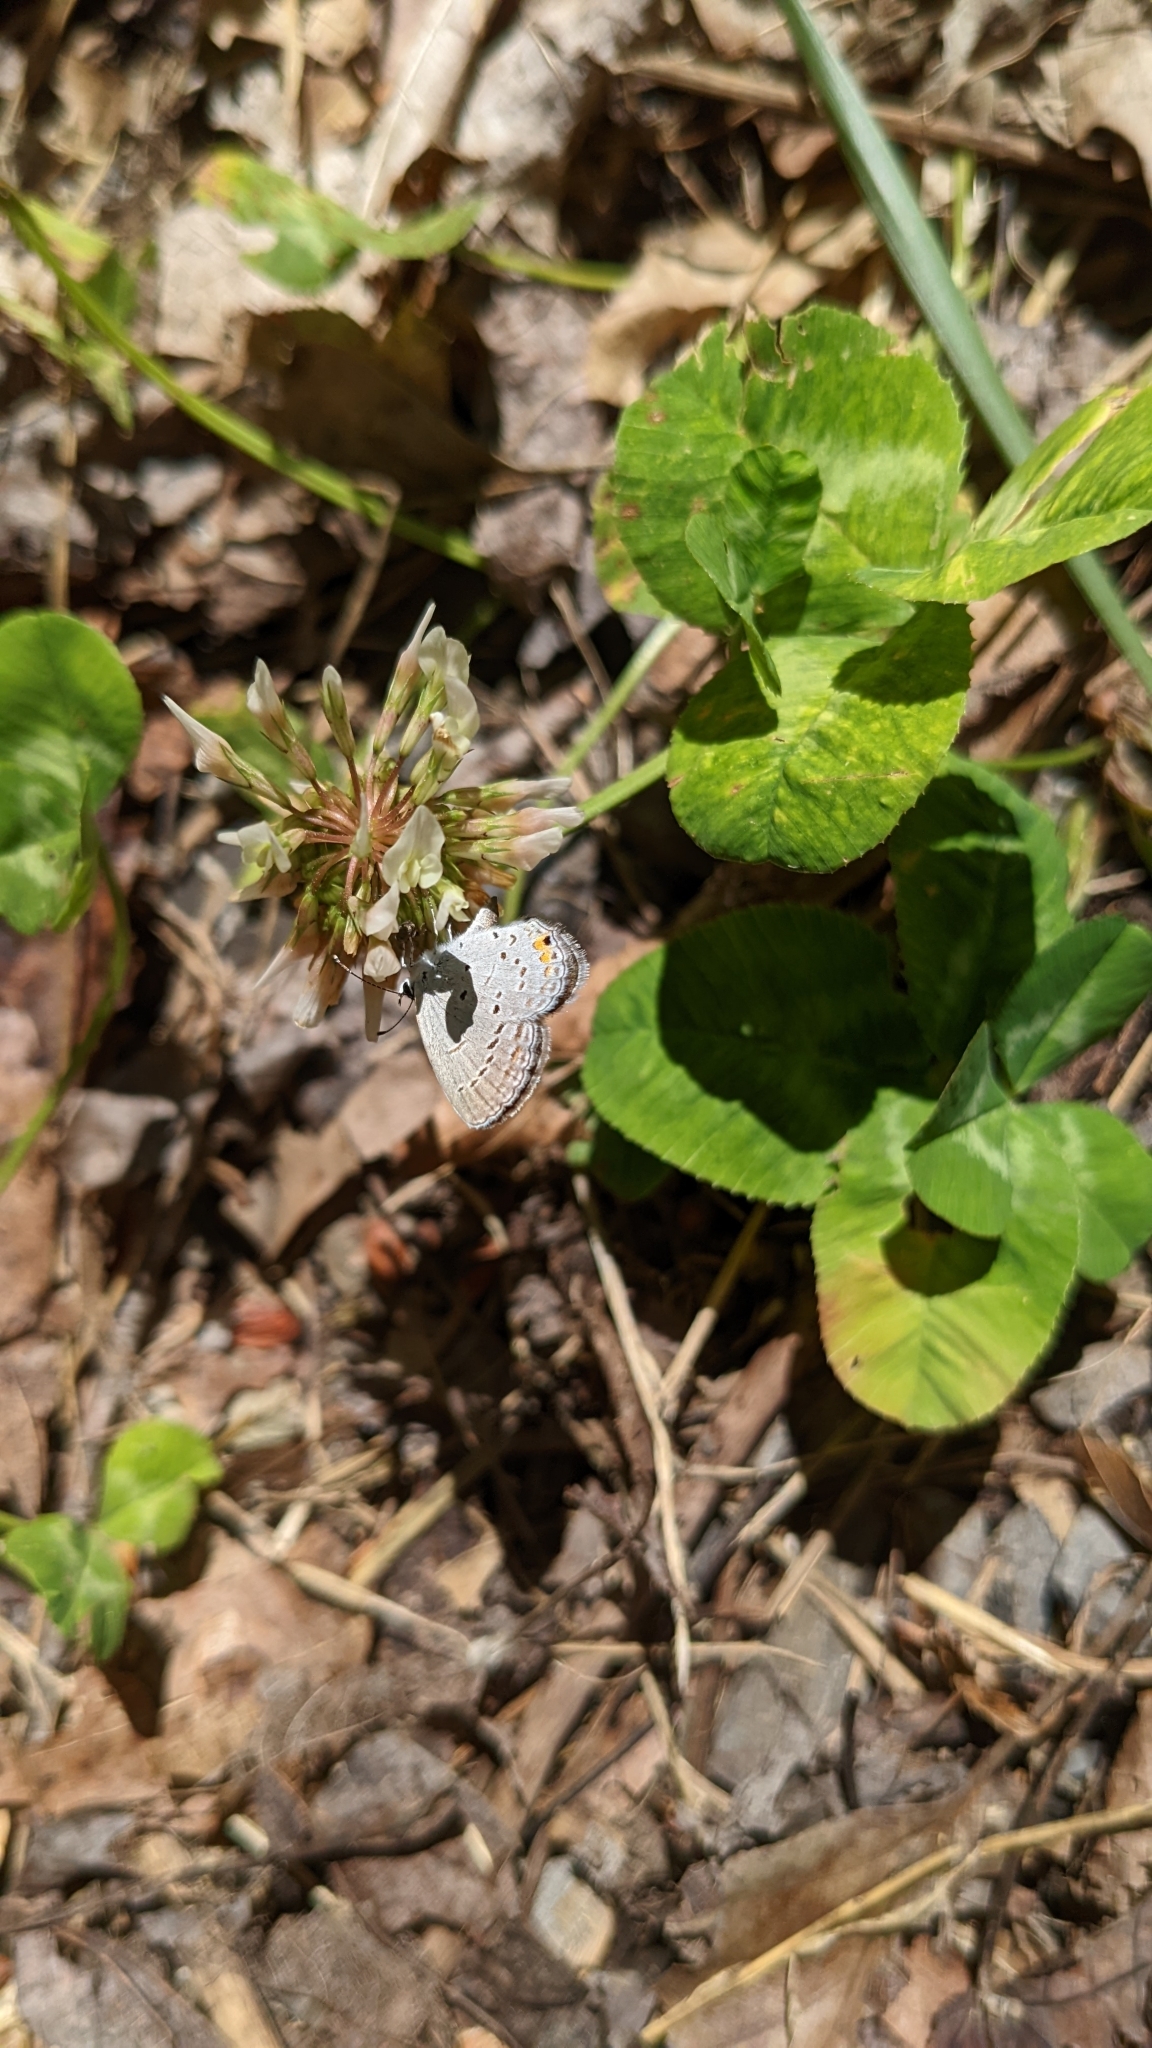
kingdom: Animalia
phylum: Arthropoda
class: Insecta
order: Lepidoptera
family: Lycaenidae
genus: Elkalyce
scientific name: Elkalyce comyntas
